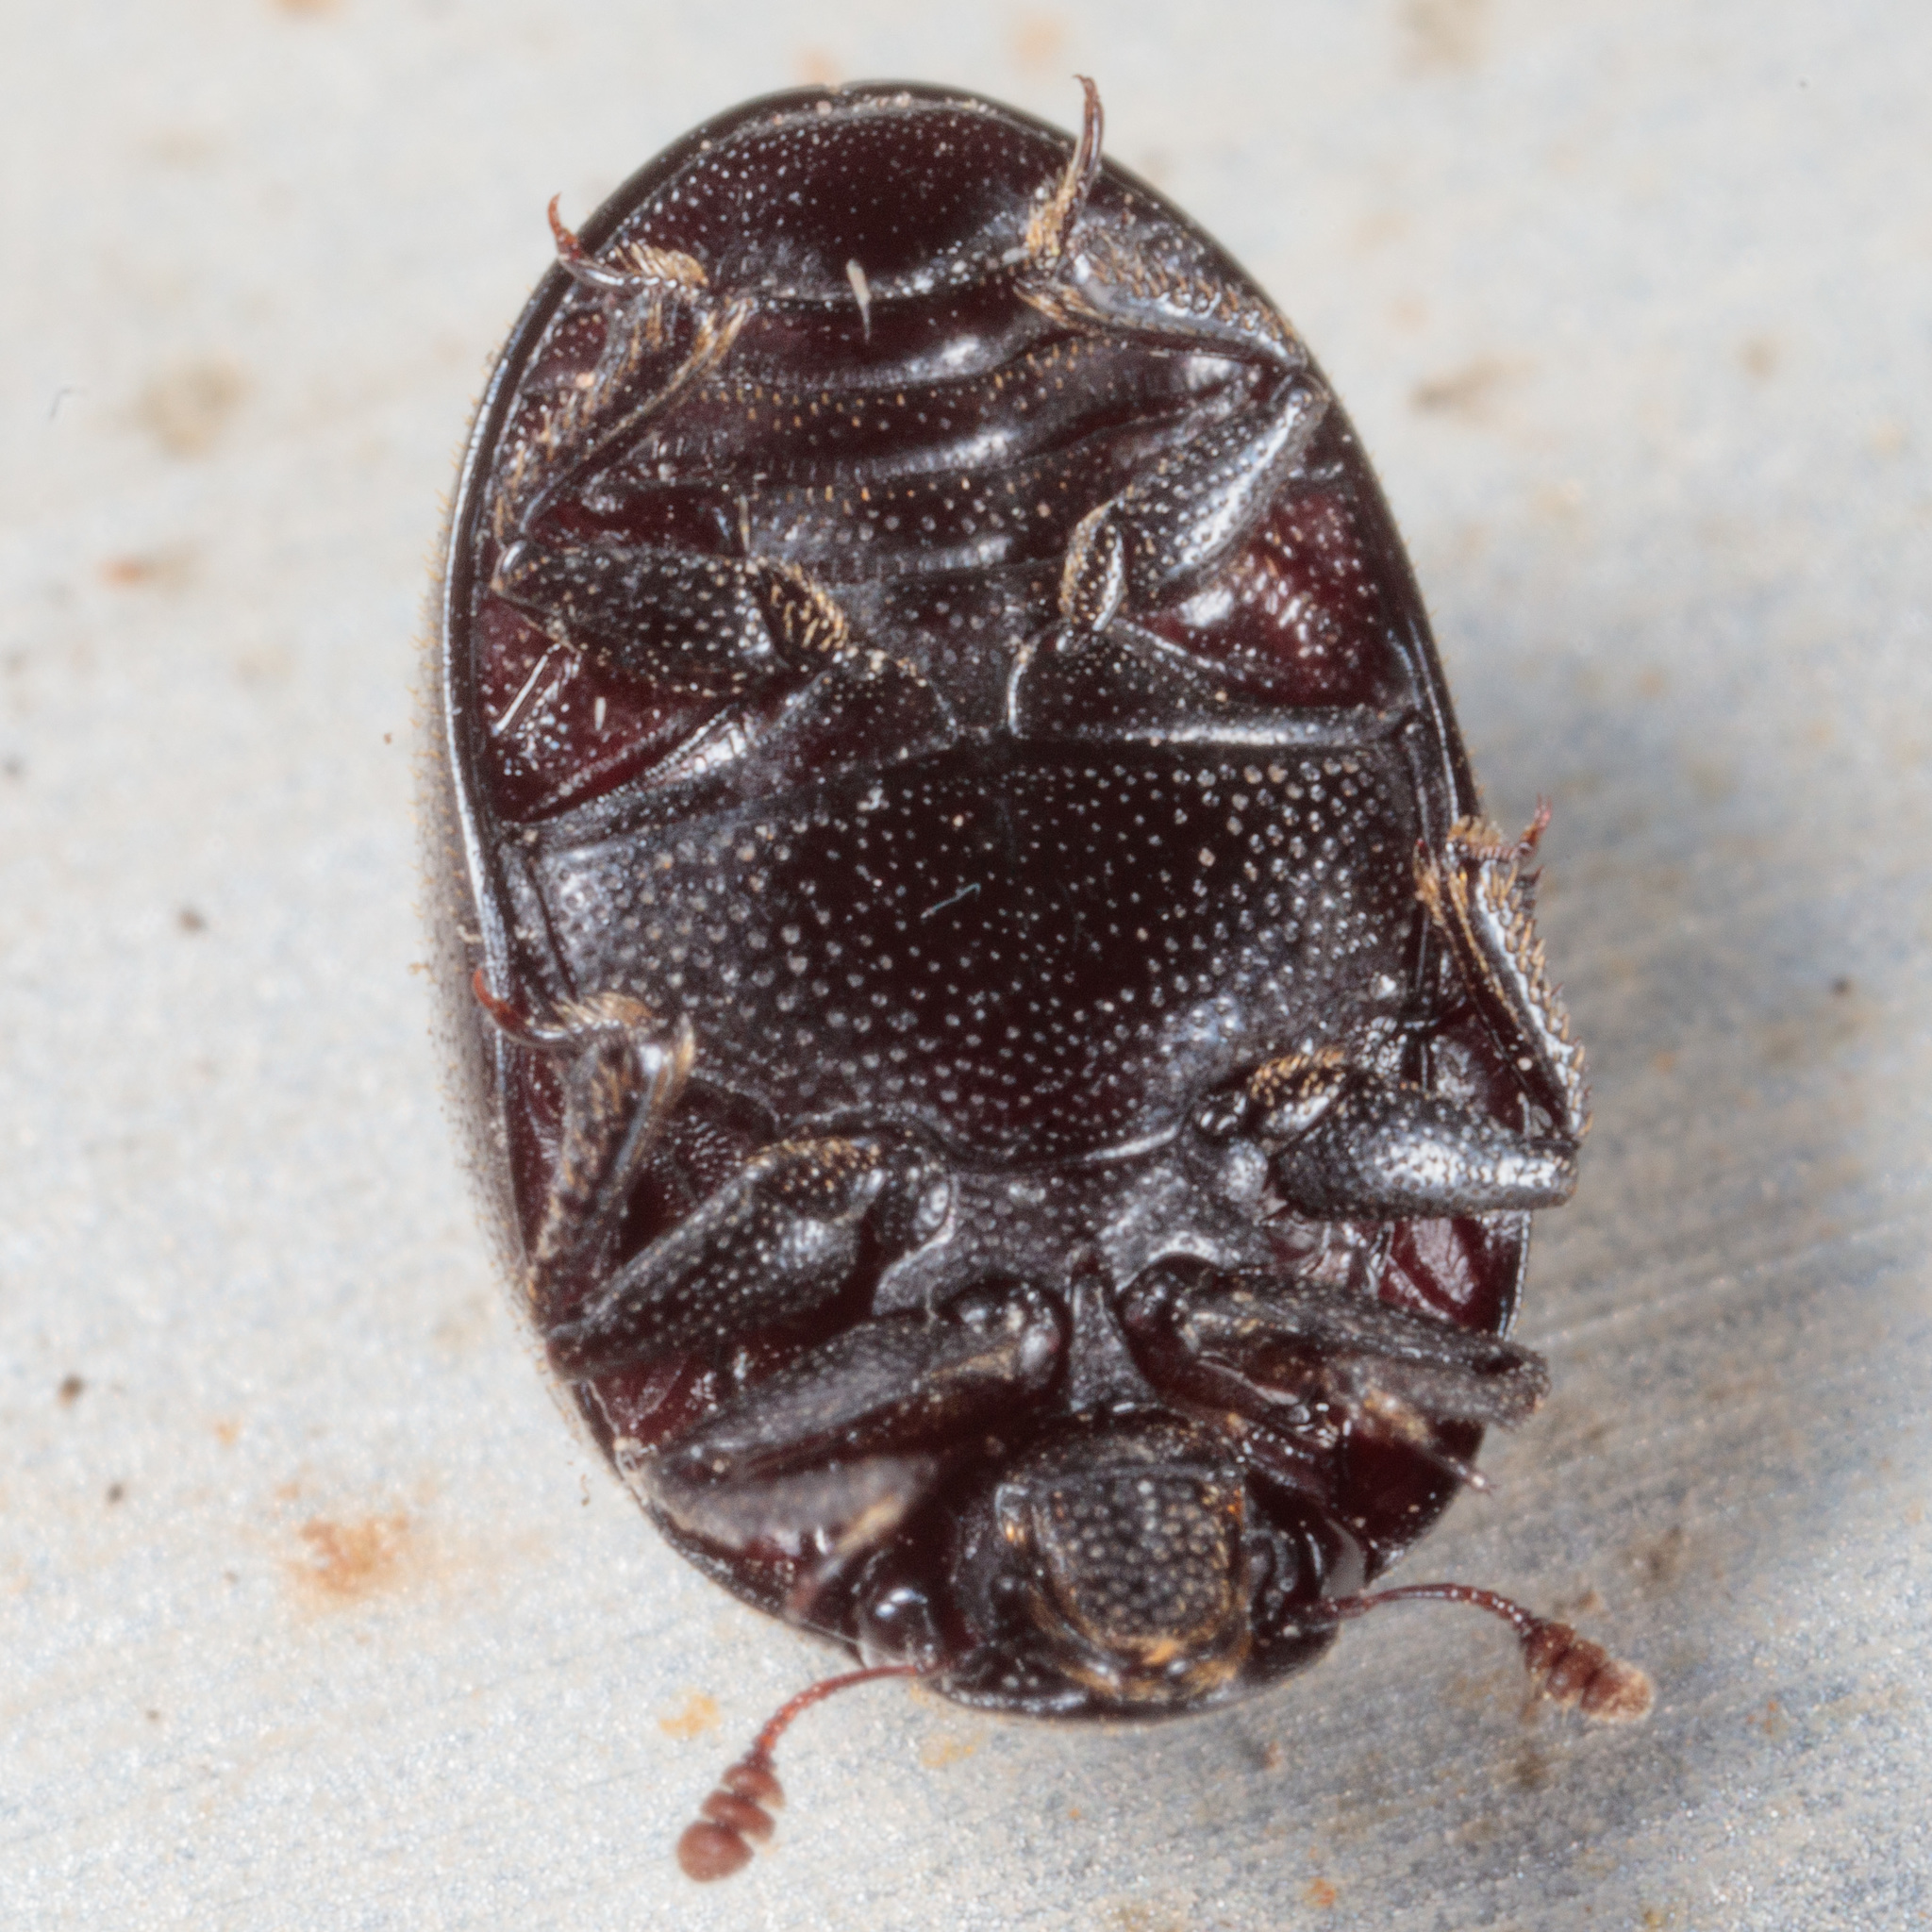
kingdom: Animalia
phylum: Arthropoda
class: Insecta
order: Coleoptera
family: Nosodendridae
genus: Nosodendron
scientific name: Nosodendron unicolor
